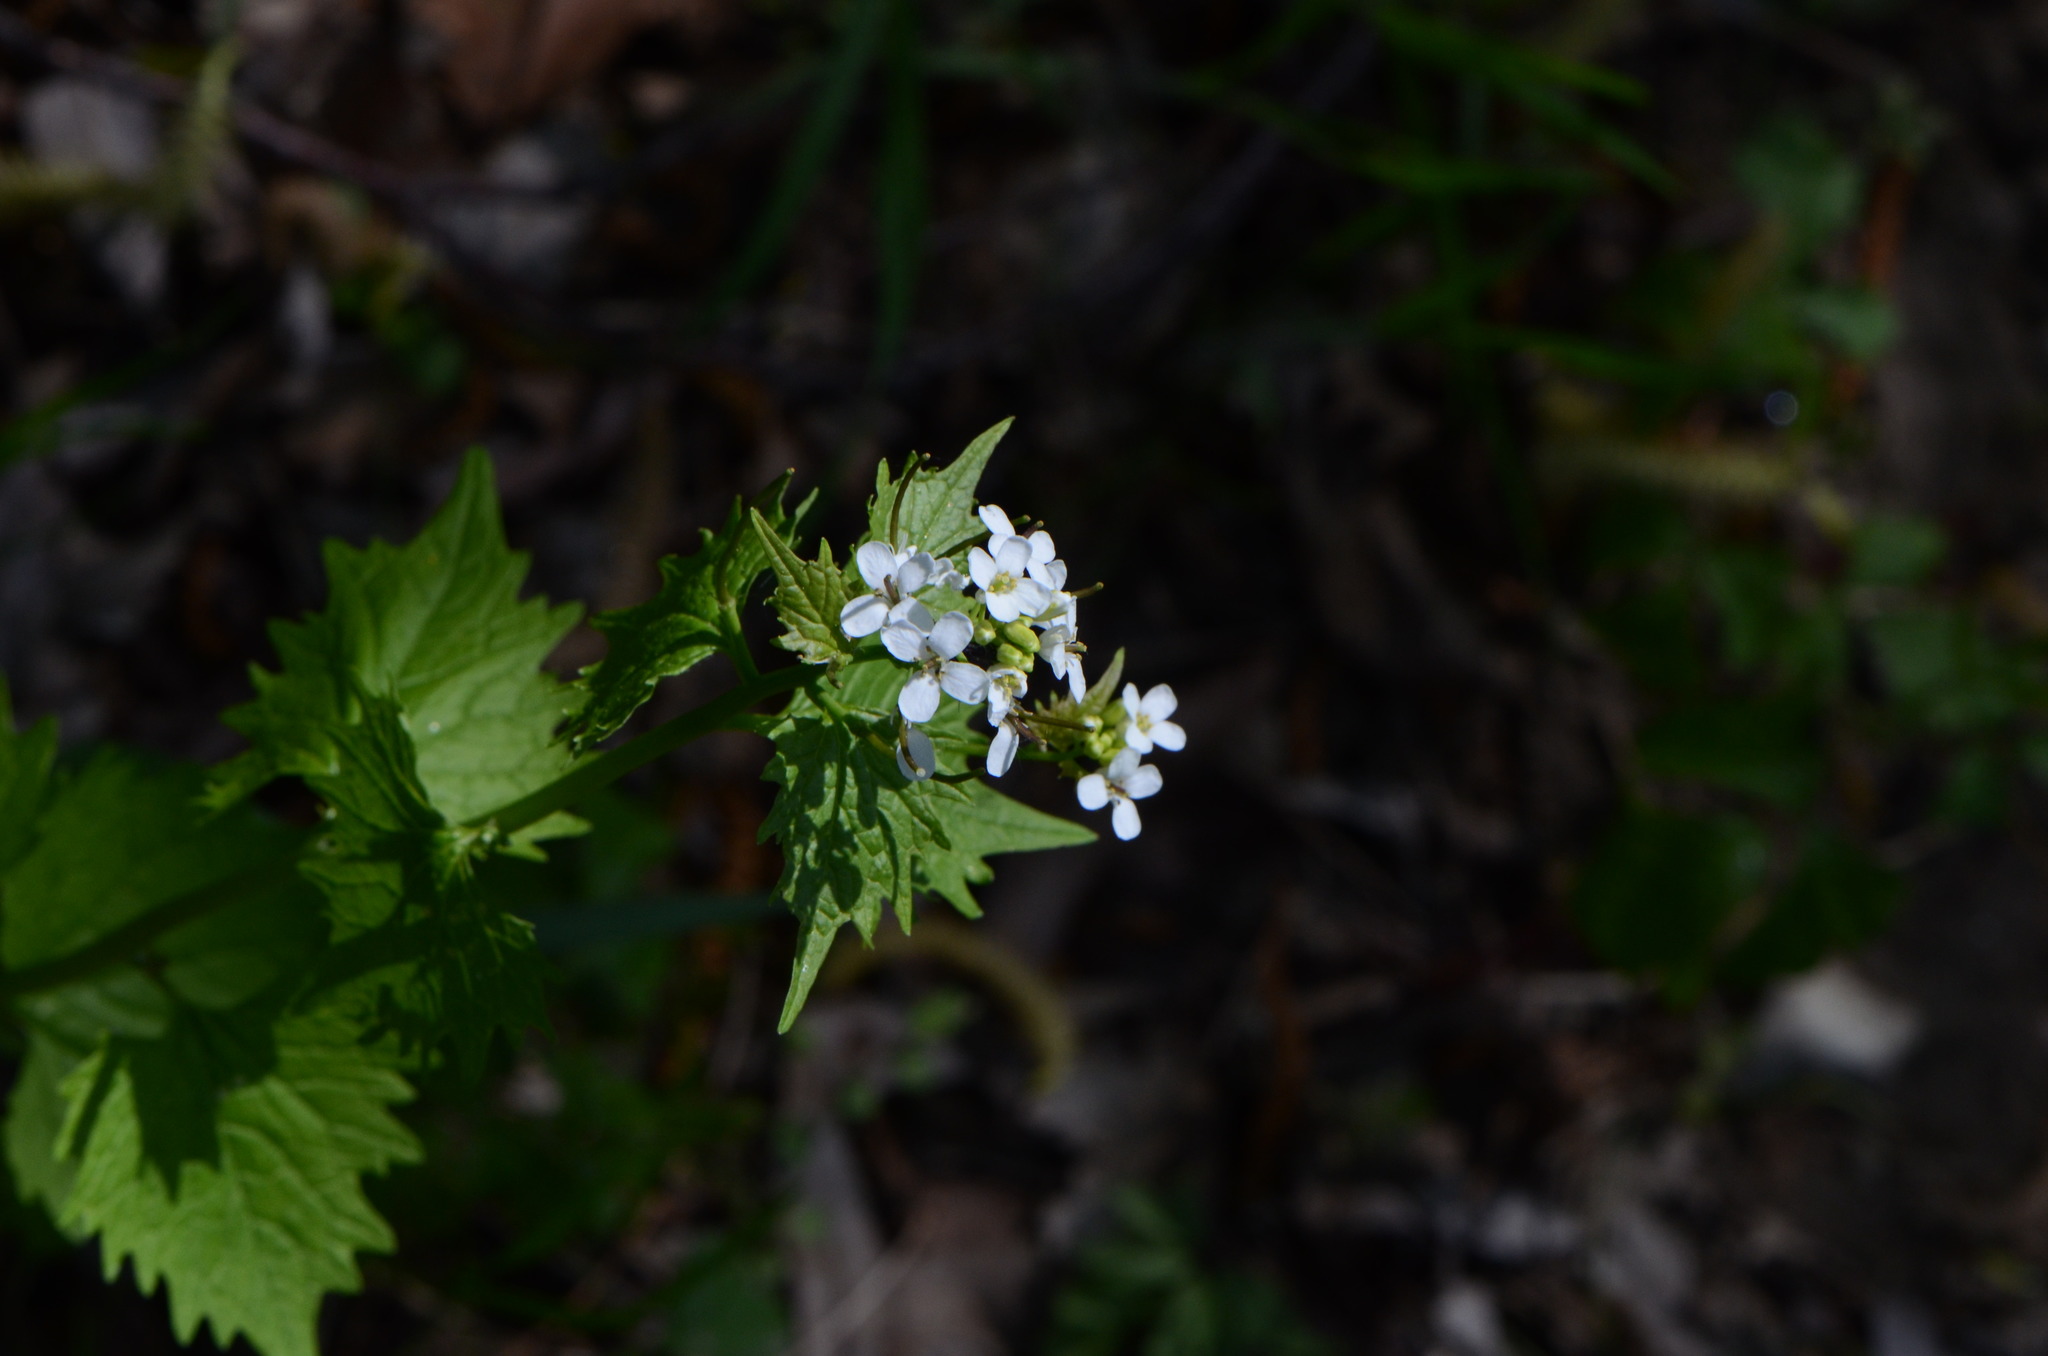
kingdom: Plantae
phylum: Tracheophyta
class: Magnoliopsida
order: Brassicales
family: Brassicaceae
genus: Alliaria
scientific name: Alliaria petiolata
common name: Garlic mustard
